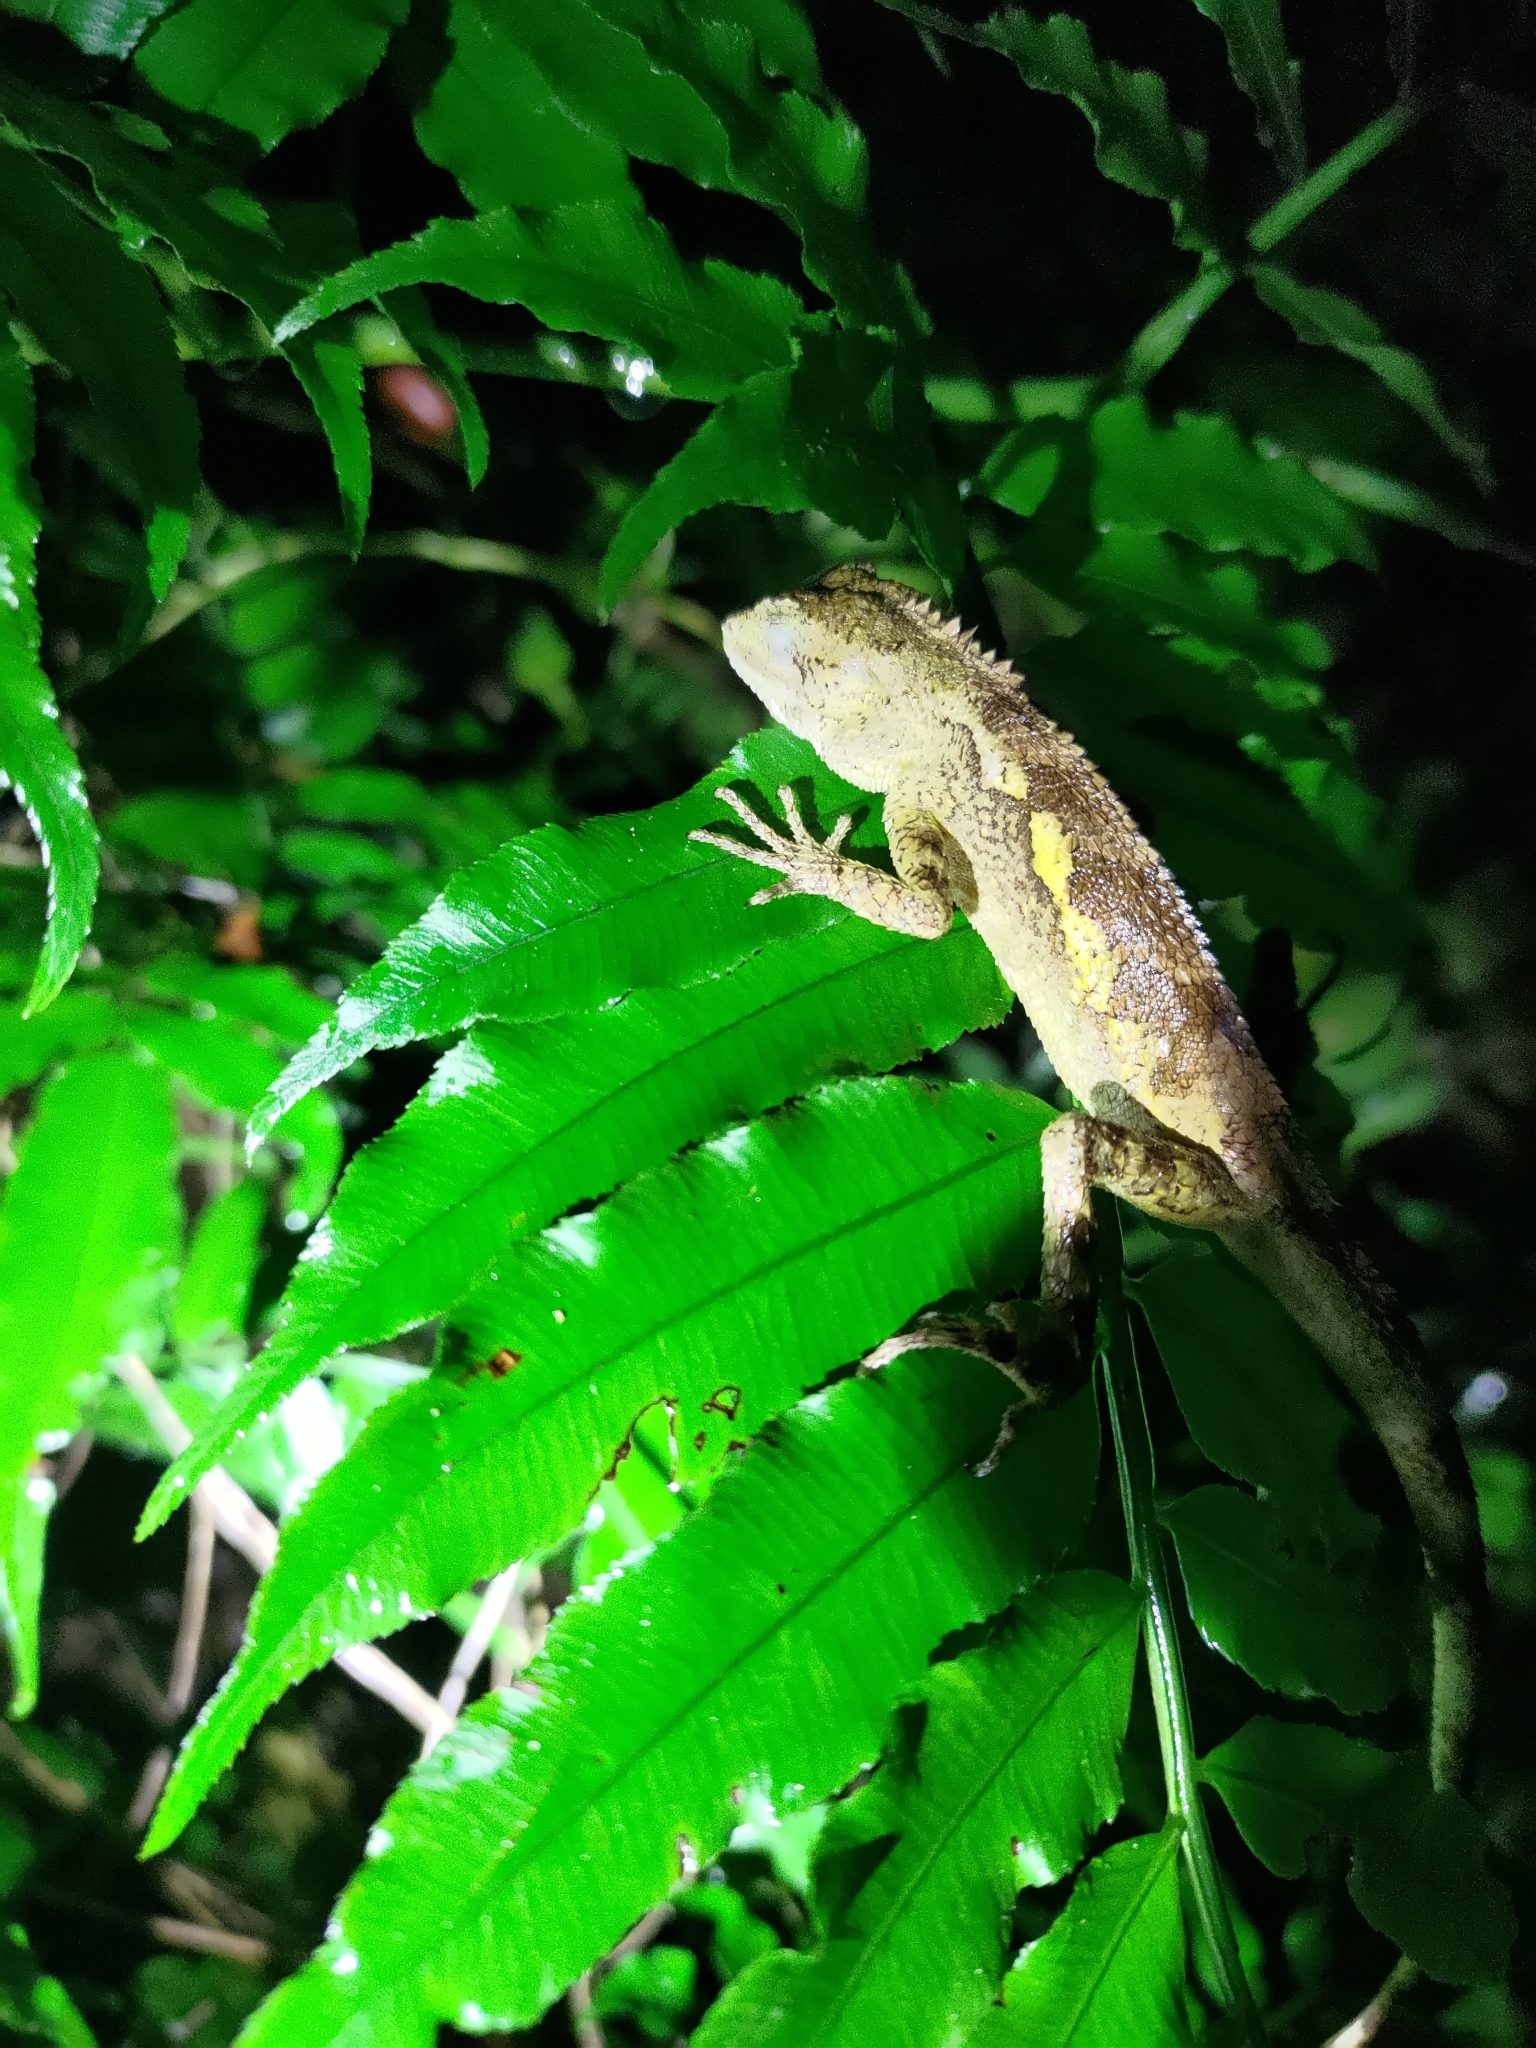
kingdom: Animalia
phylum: Chordata
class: Squamata
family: Agamidae
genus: Diploderma
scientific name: Diploderma swinhonis
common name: Taiwan japalure
